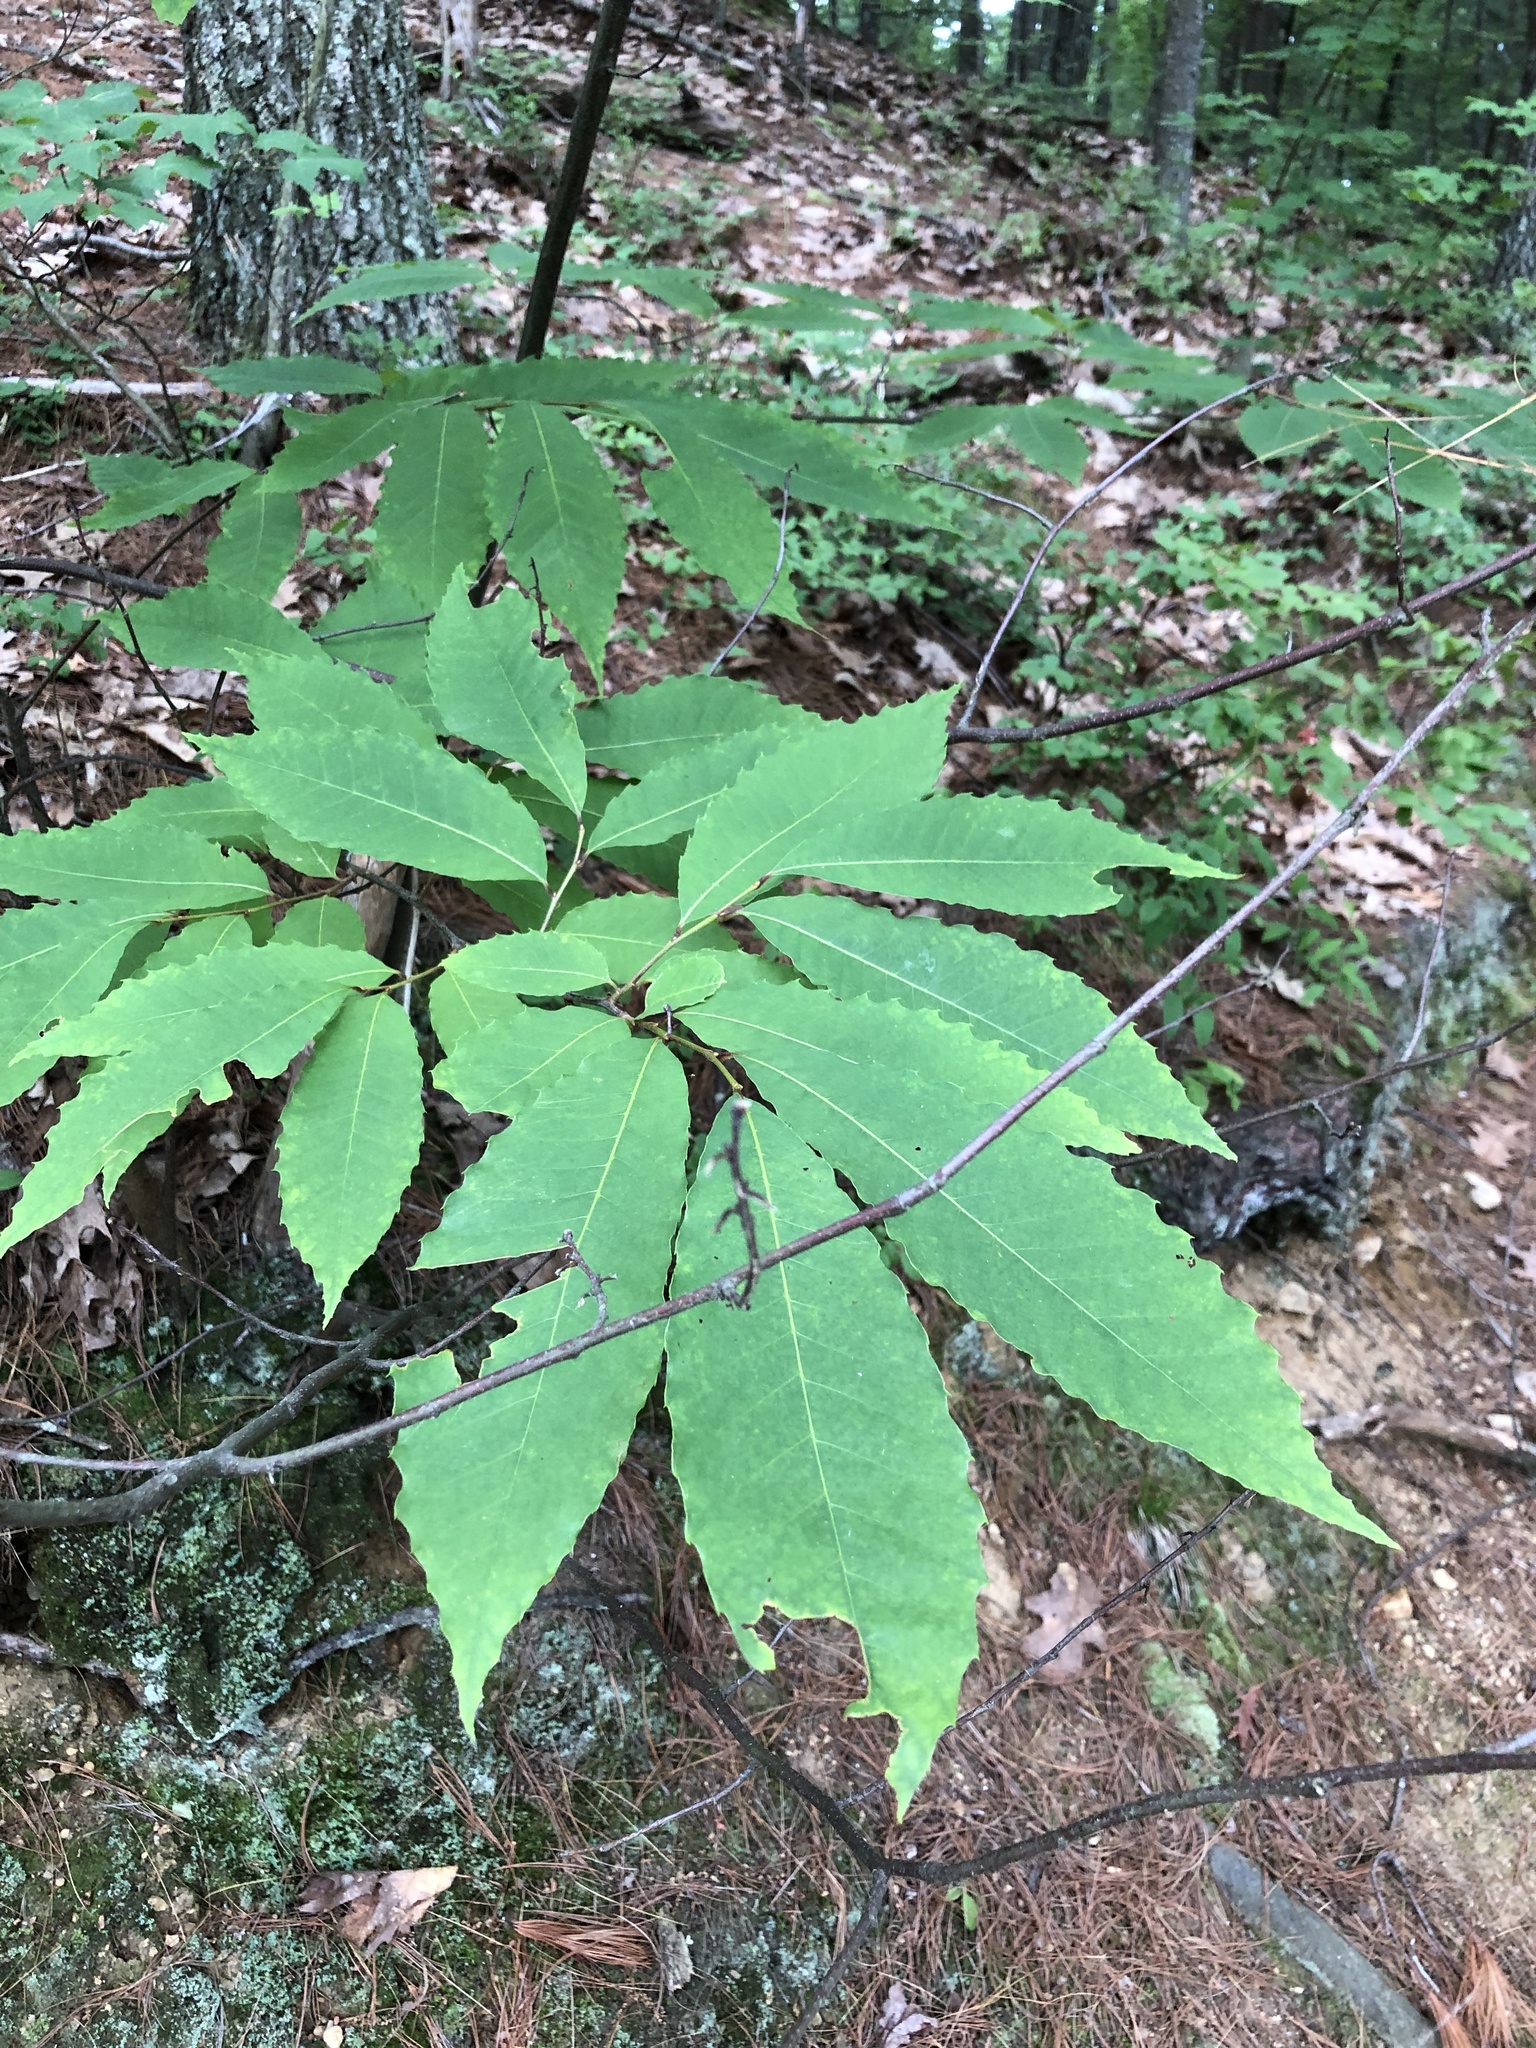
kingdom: Plantae
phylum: Tracheophyta
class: Magnoliopsida
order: Fagales
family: Fagaceae
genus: Castanea
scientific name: Castanea dentata
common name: American chestnut
